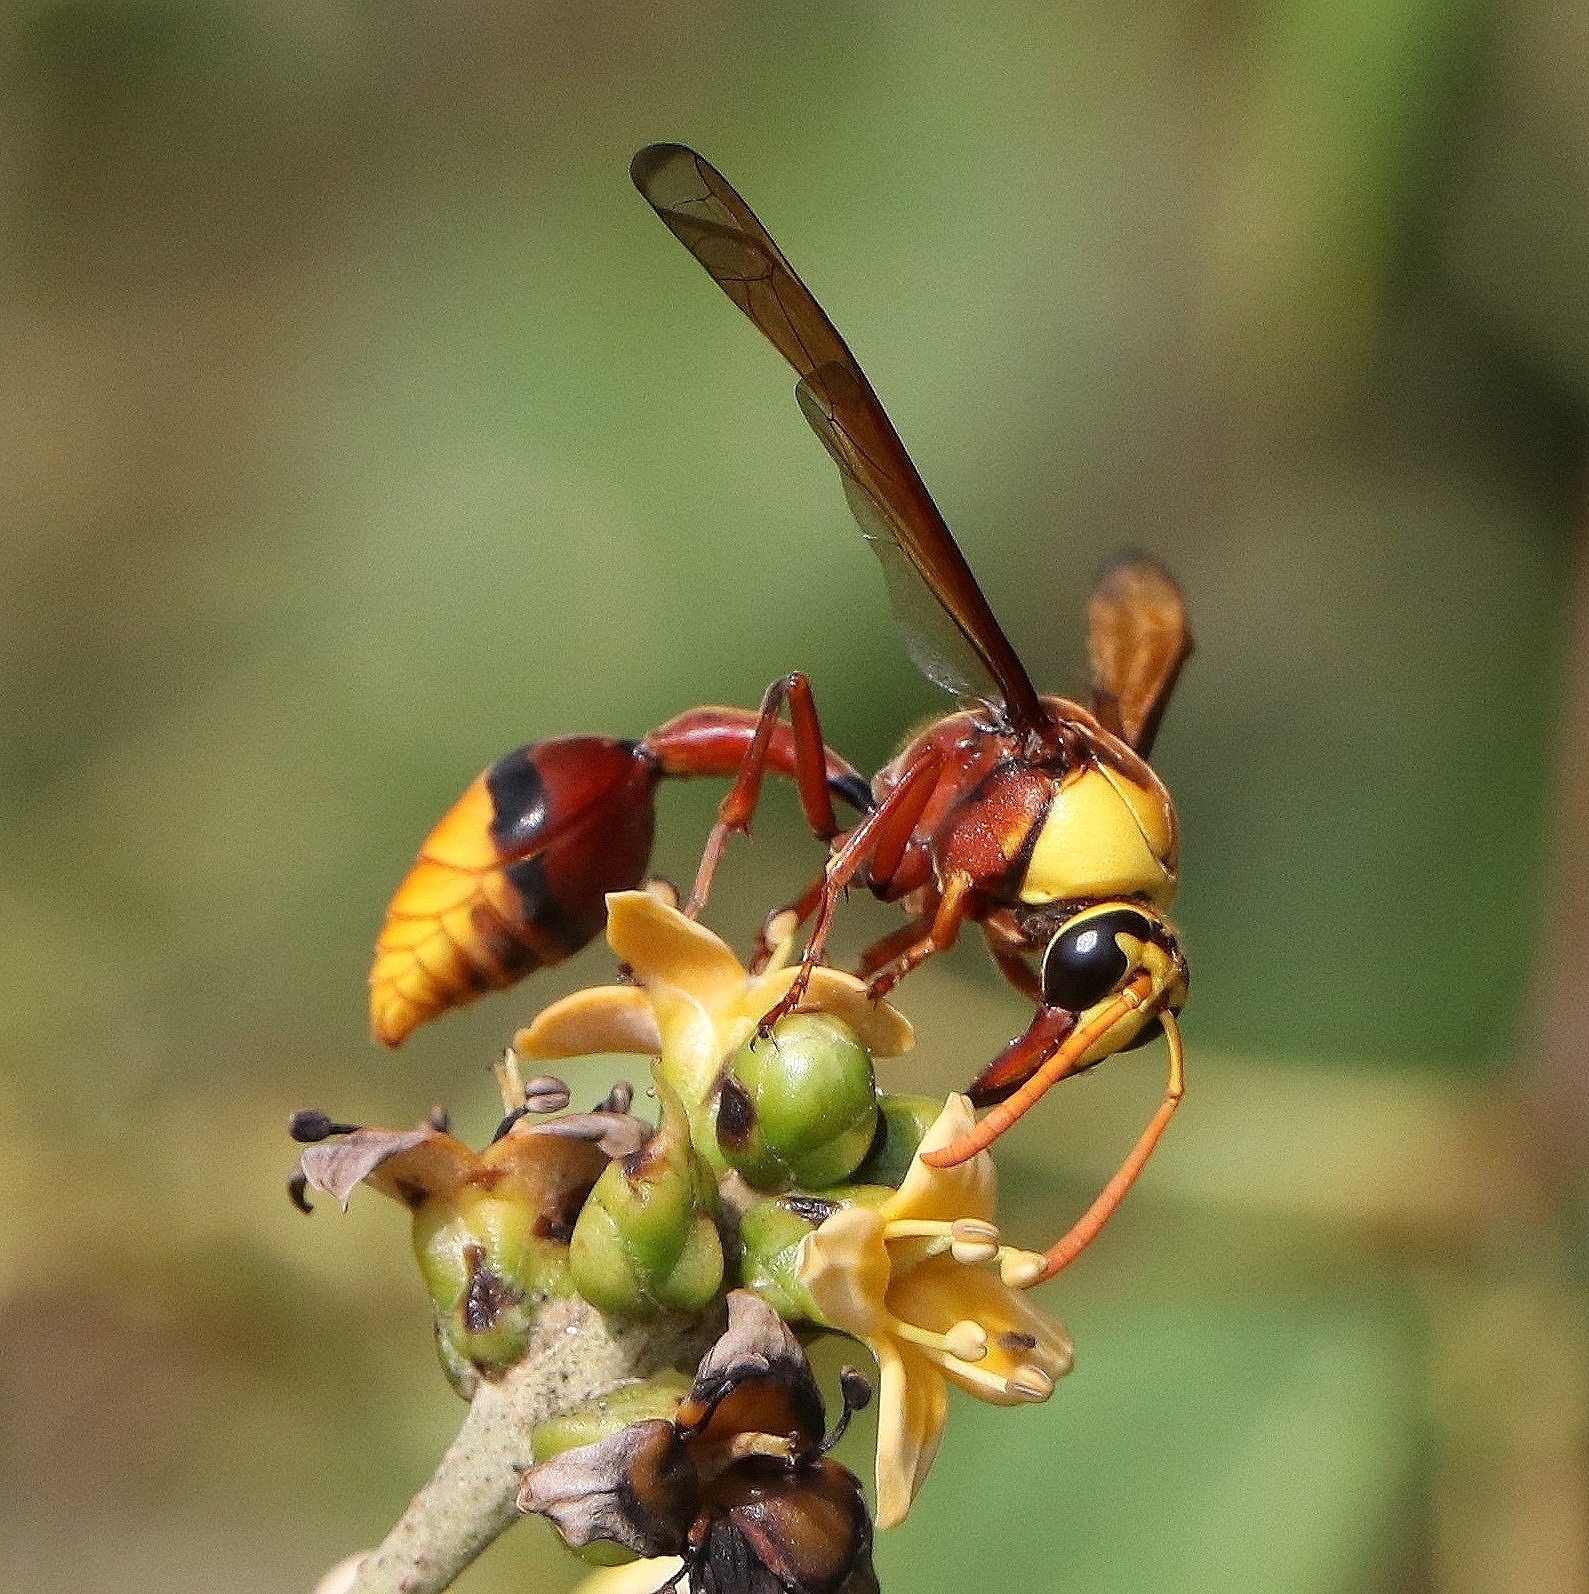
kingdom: Animalia
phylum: Arthropoda
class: Insecta
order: Hymenoptera
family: Eumenidae
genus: Delta
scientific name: Delta pyriforme
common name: Wasp
